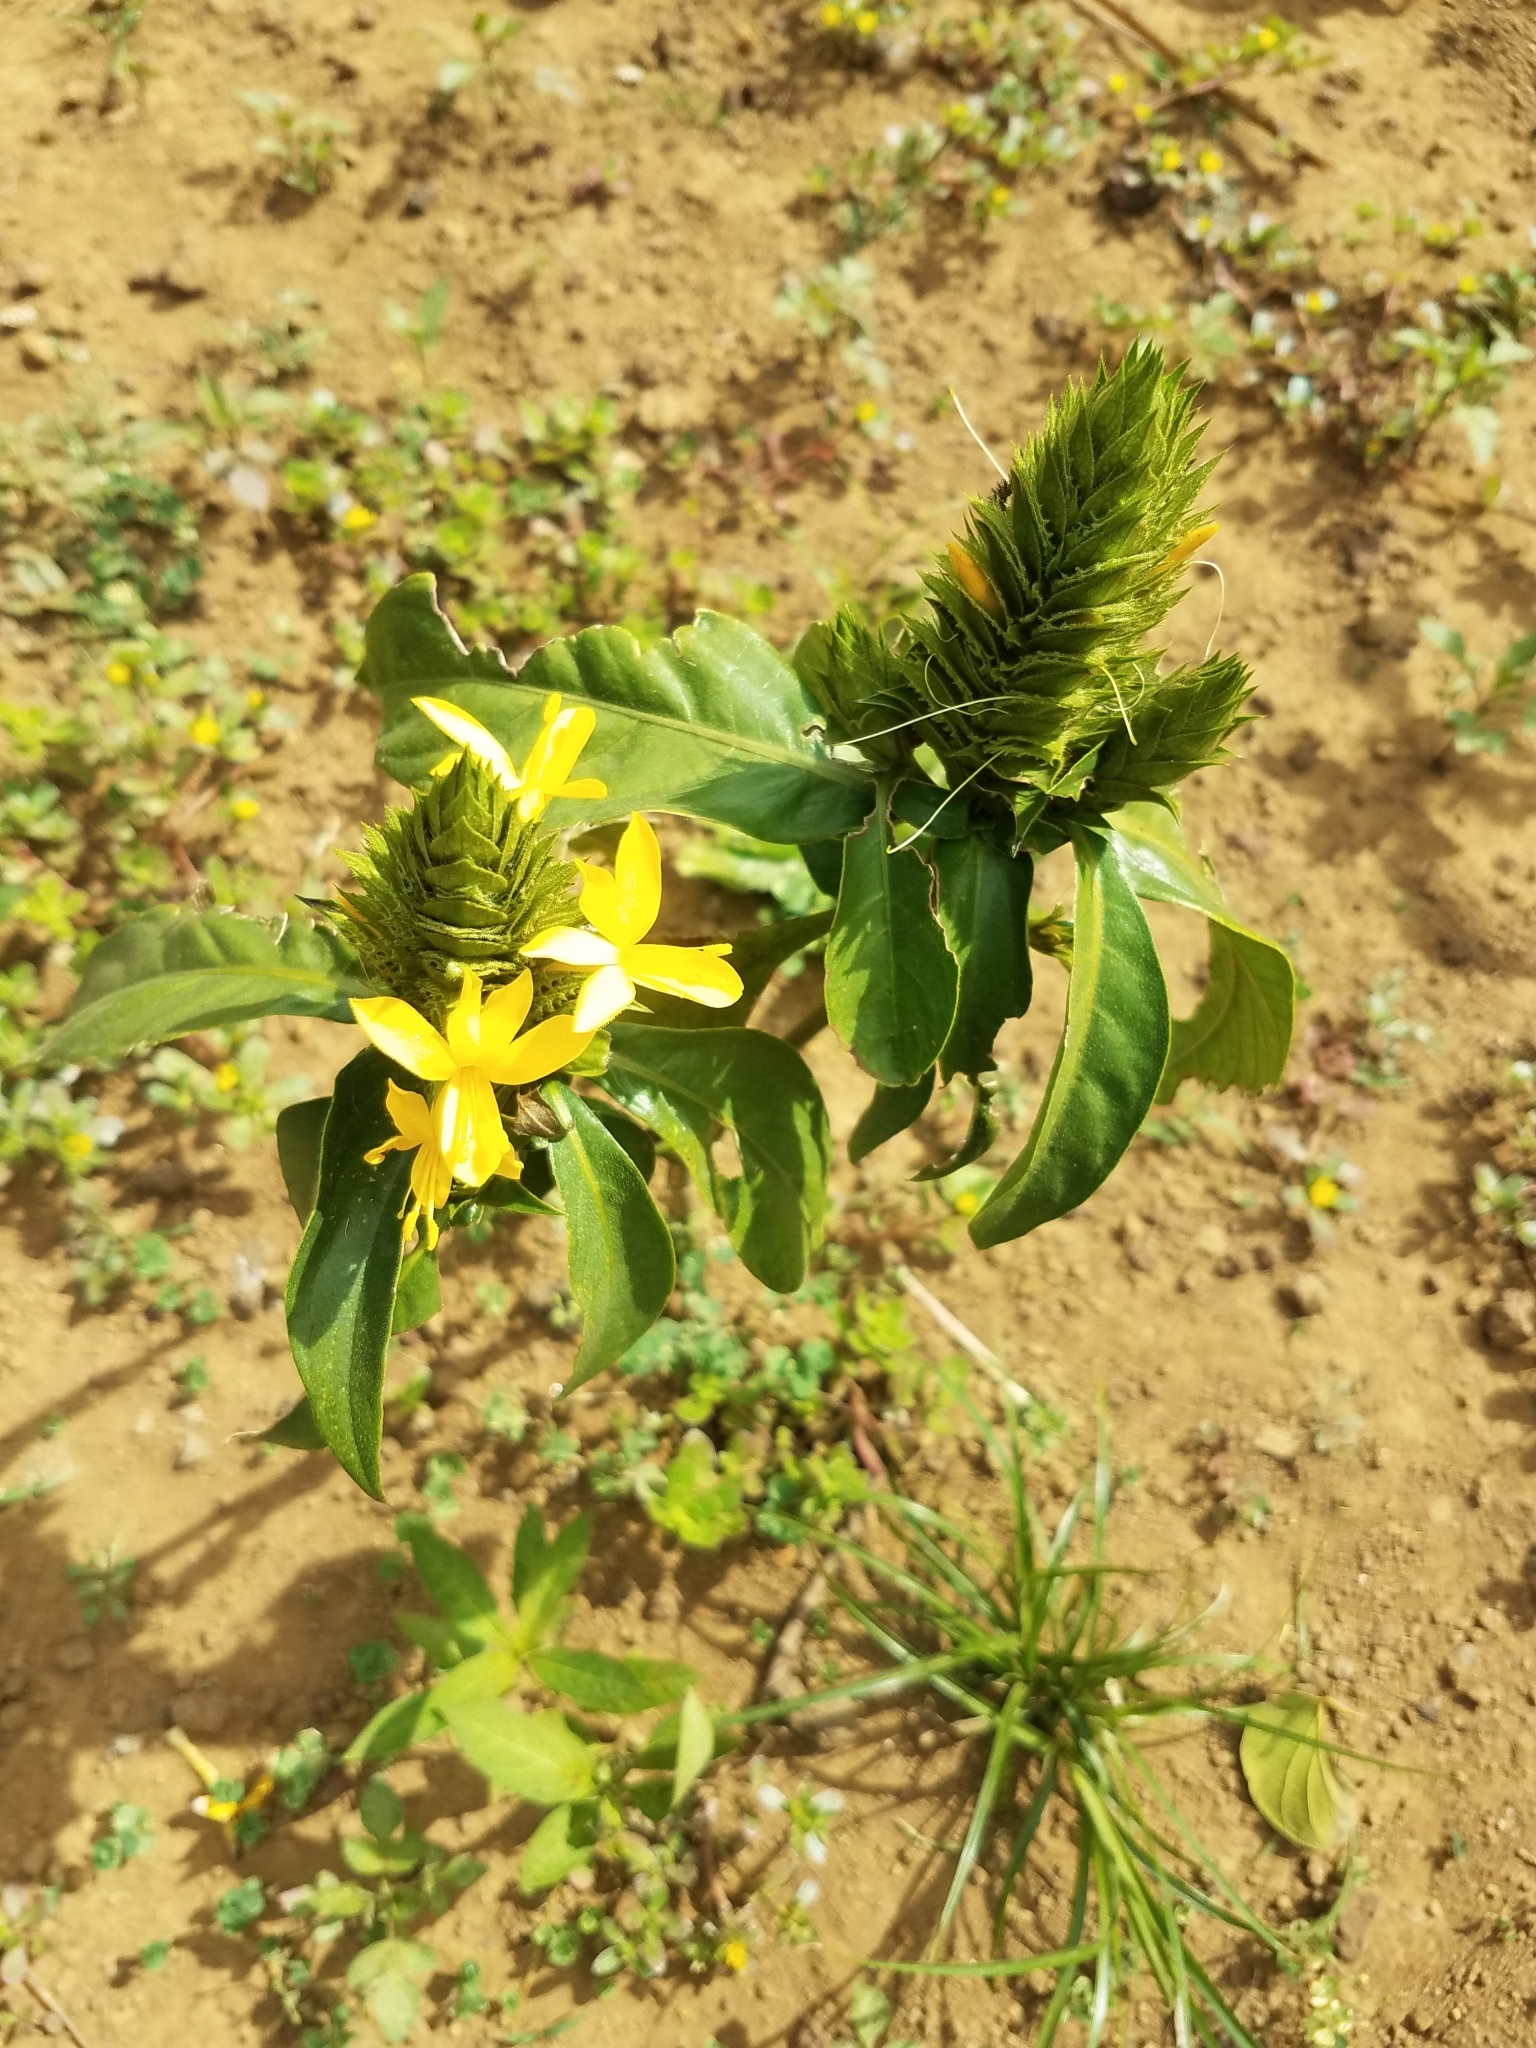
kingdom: Plantae
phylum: Tracheophyta
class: Magnoliopsida
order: Lamiales
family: Acanthaceae
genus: Barleria
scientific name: Barleria oenotheroides
